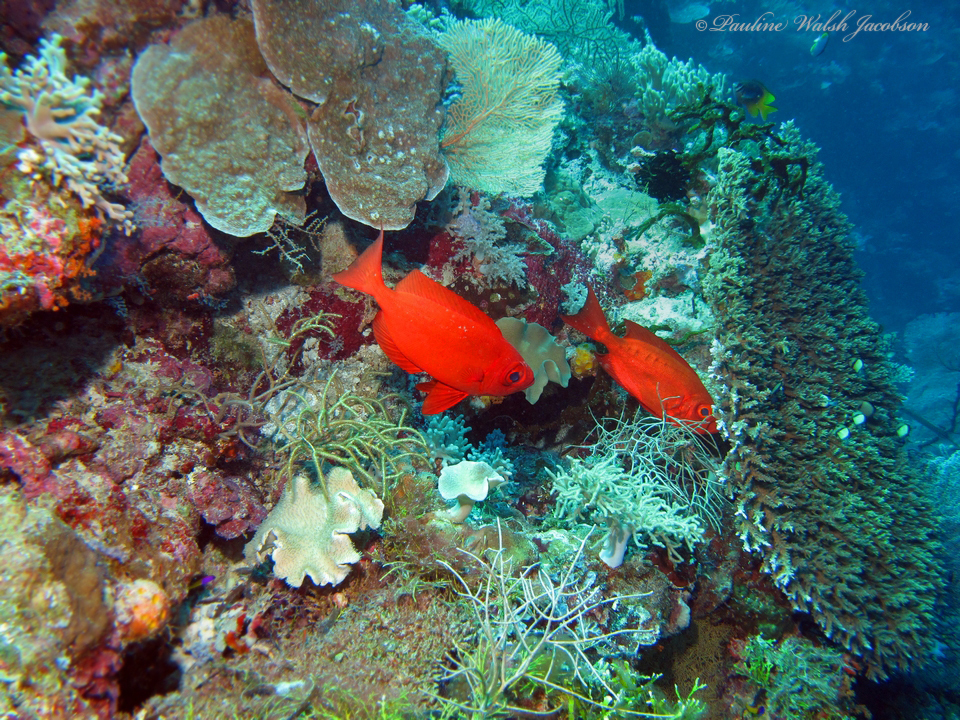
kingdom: Animalia
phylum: Chordata
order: Perciformes
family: Priacanthidae
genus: Priacanthus
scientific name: Priacanthus hamrur
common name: Moontail bullseye
